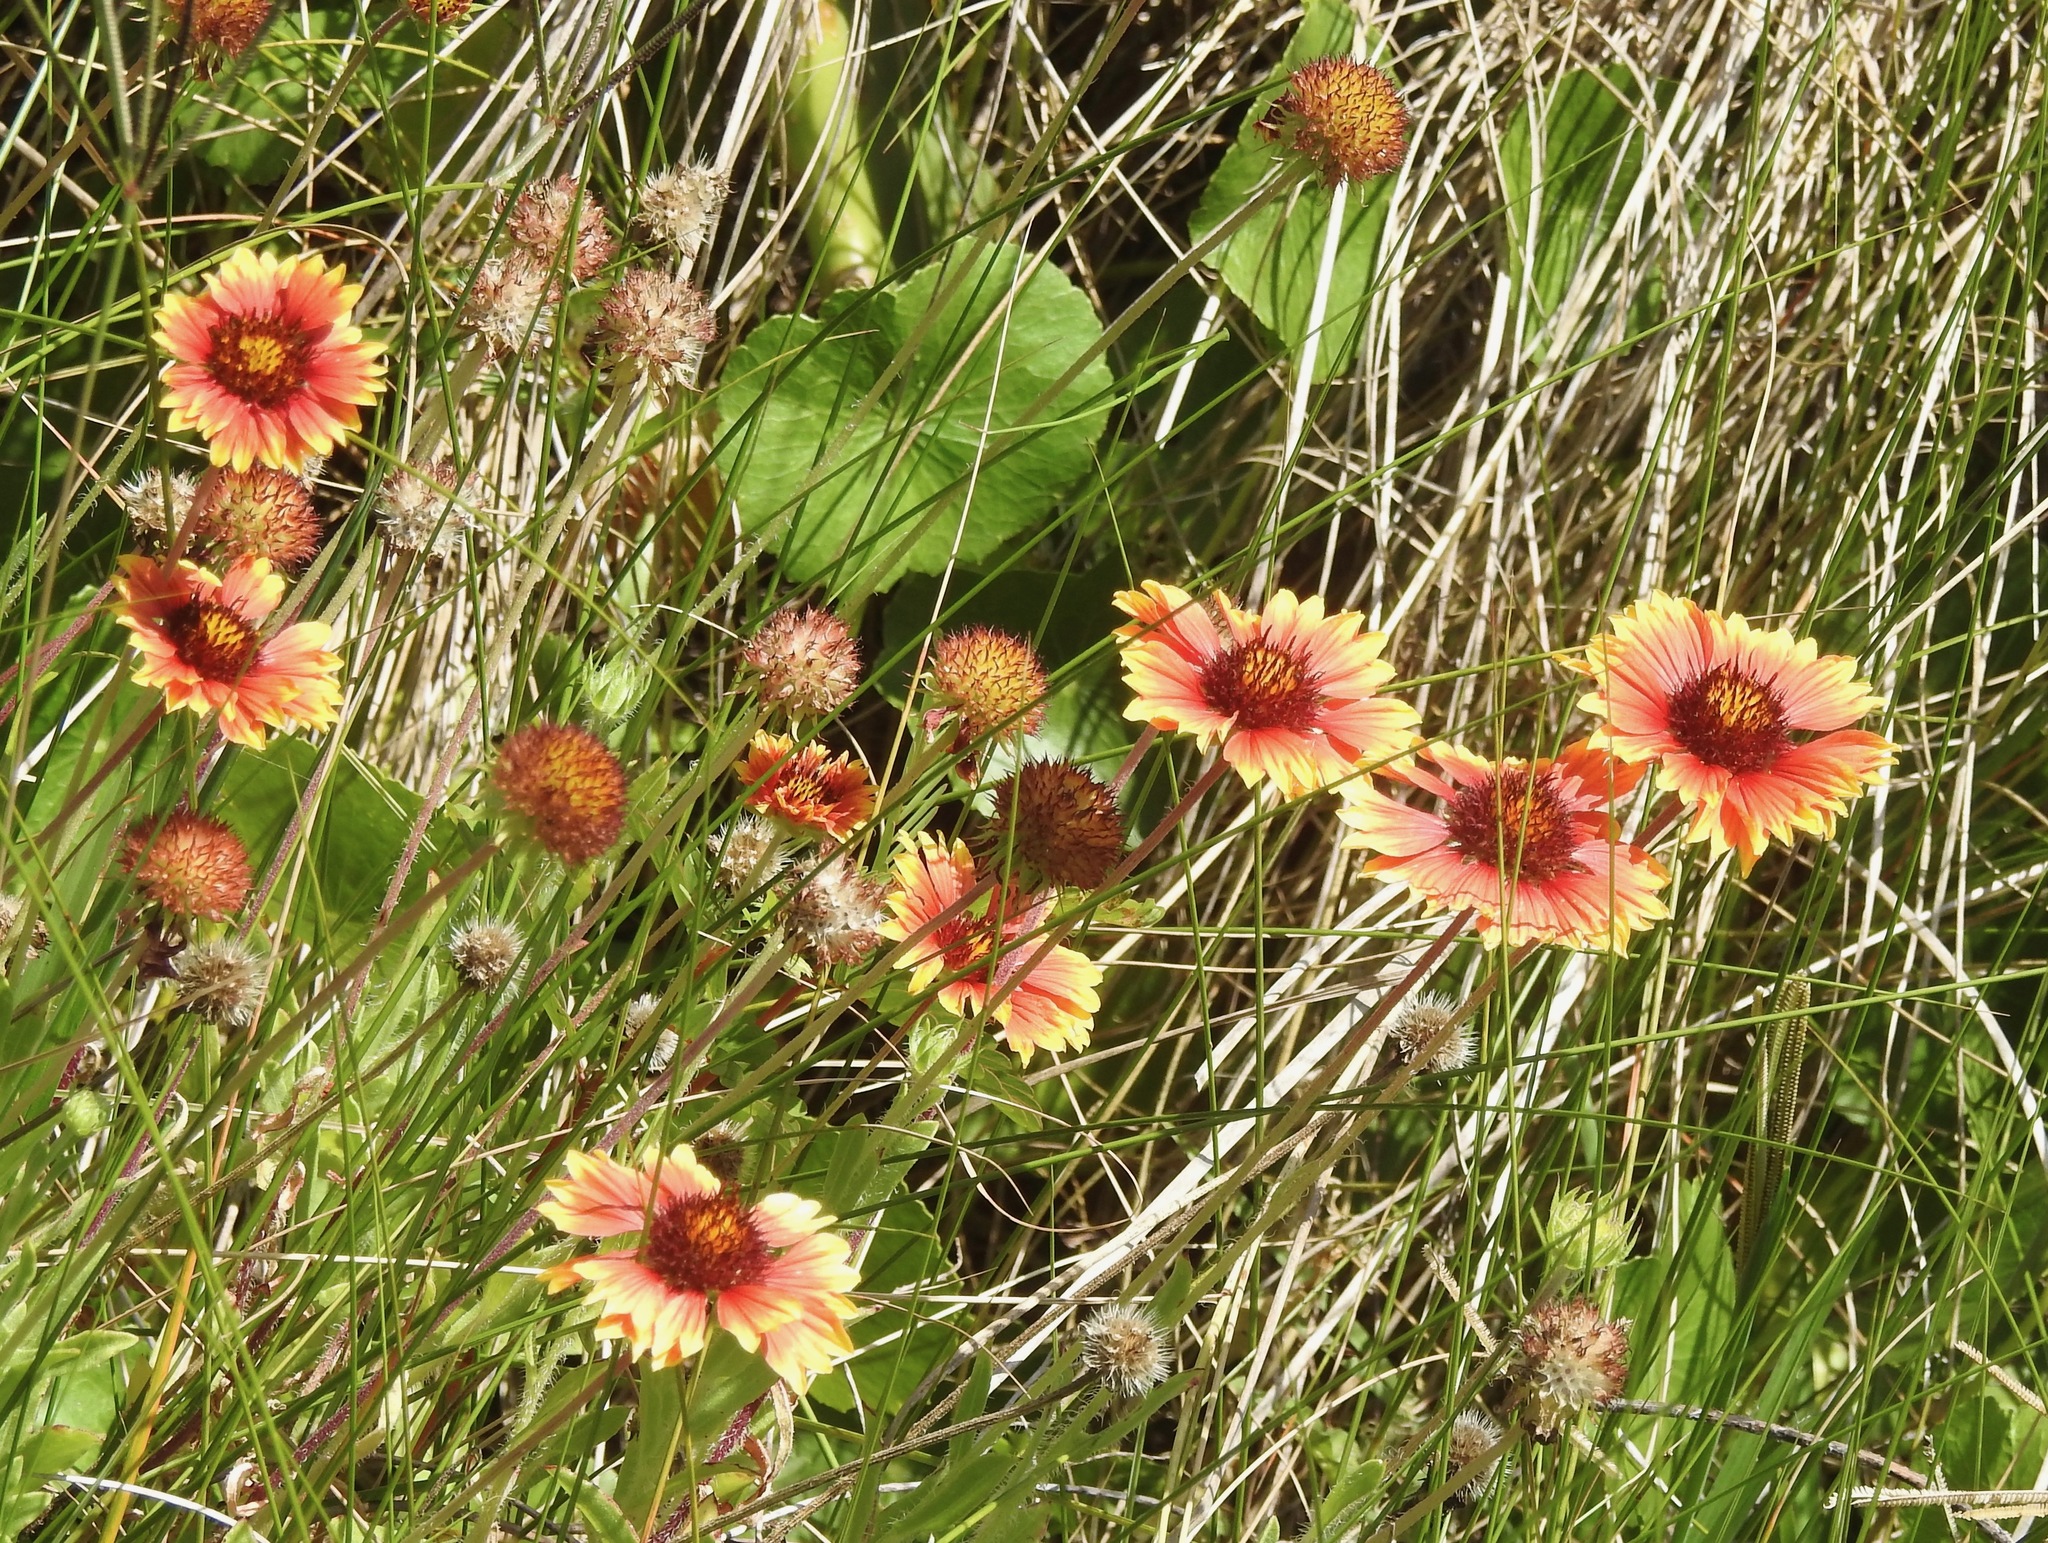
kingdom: Plantae
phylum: Tracheophyta
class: Magnoliopsida
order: Asterales
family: Asteraceae
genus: Gaillardia
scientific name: Gaillardia pulchella
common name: Firewheel
